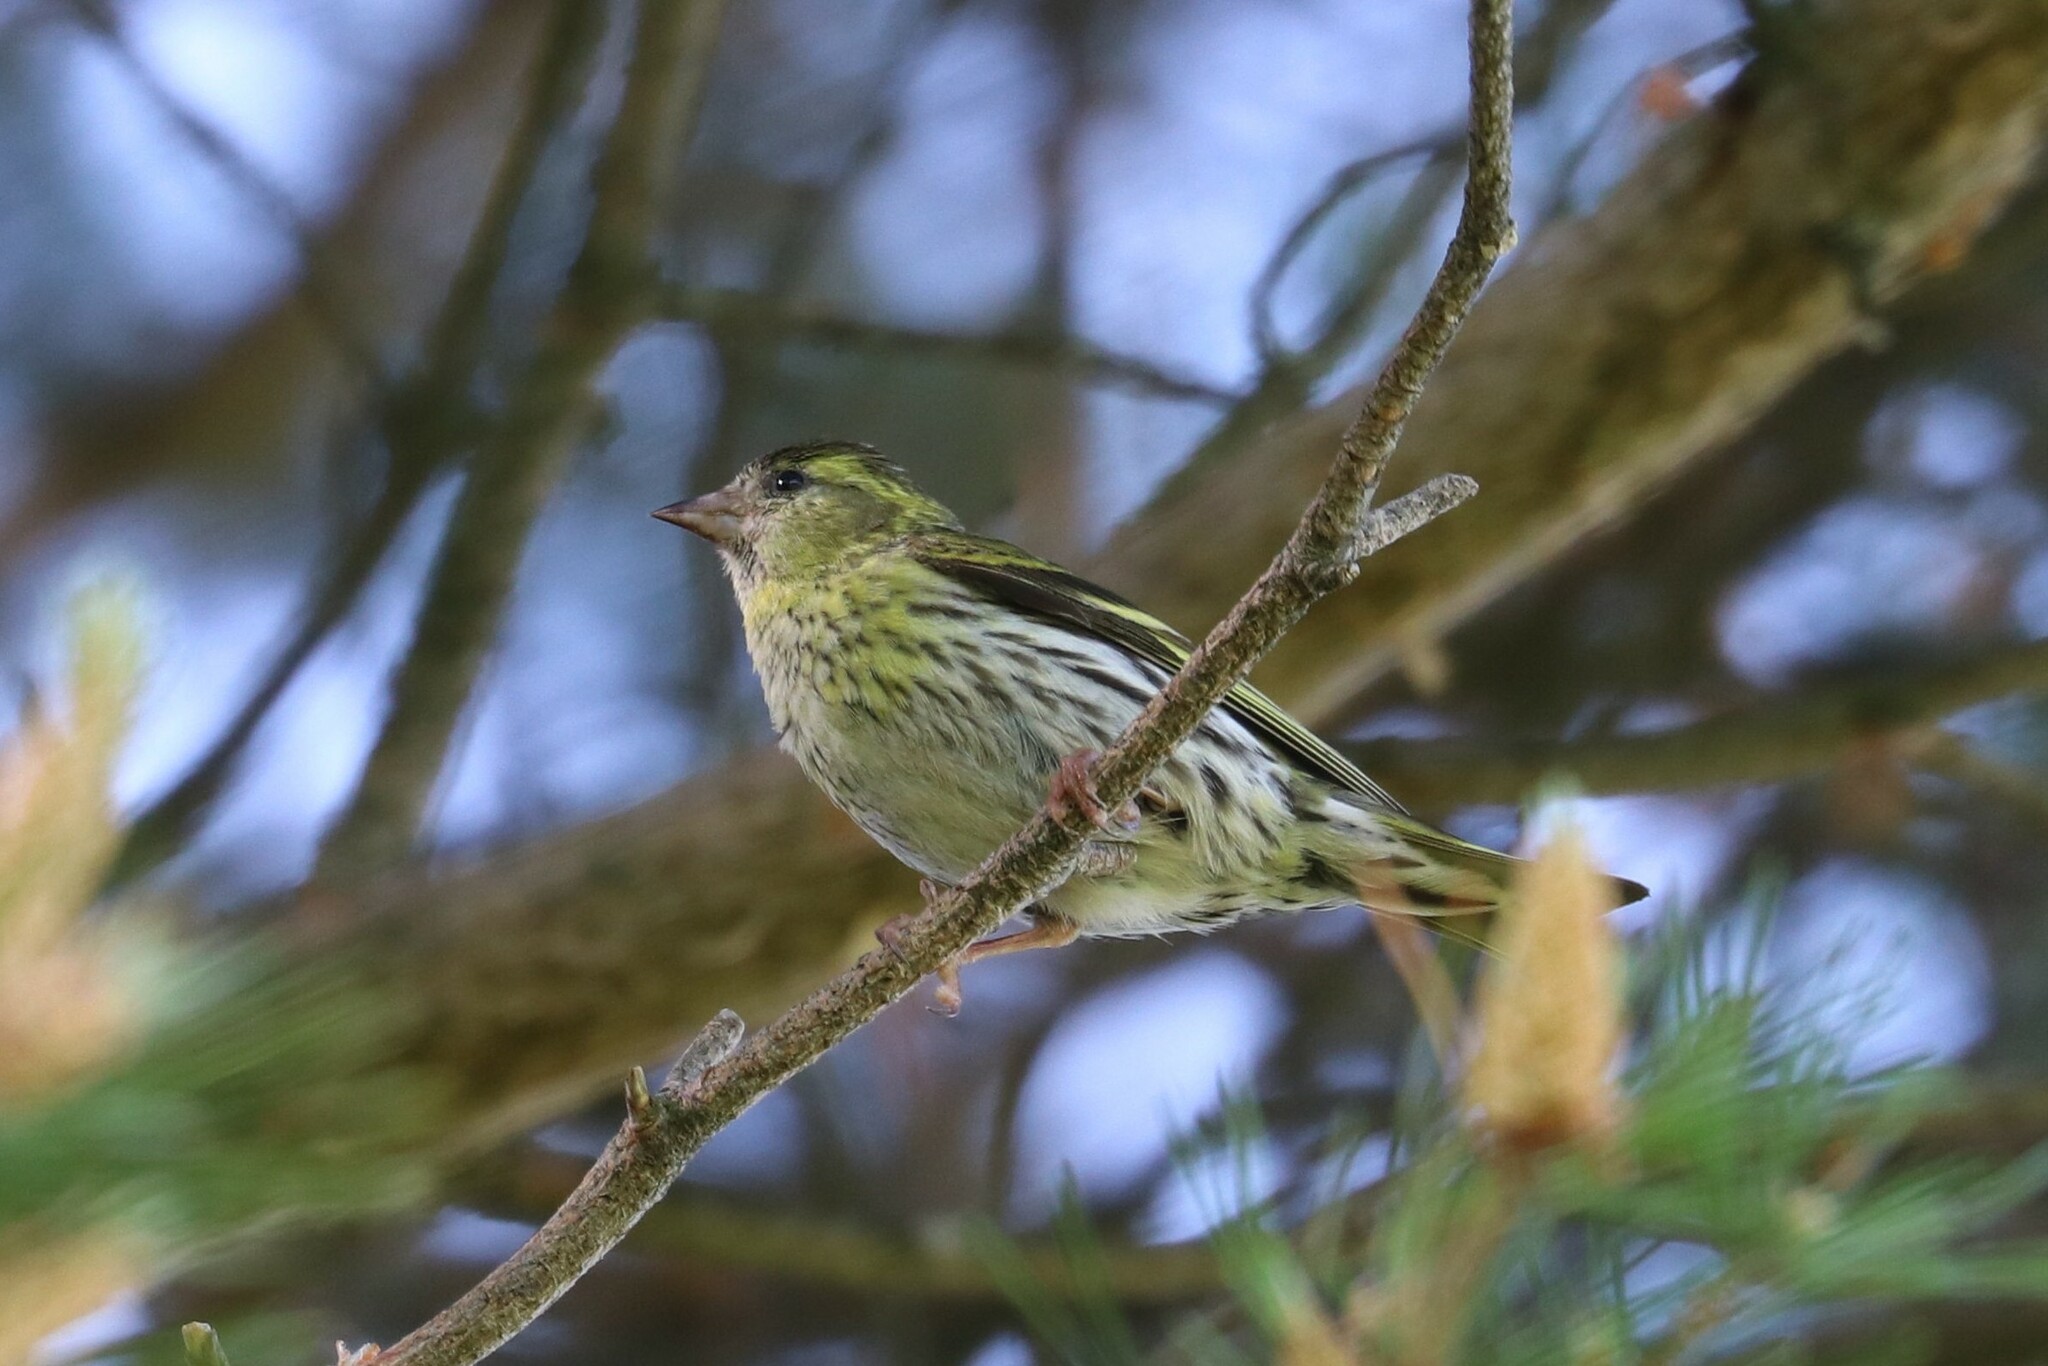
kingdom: Animalia
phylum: Chordata
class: Aves
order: Passeriformes
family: Fringillidae
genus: Spinus
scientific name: Spinus spinus
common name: Eurasian siskin
